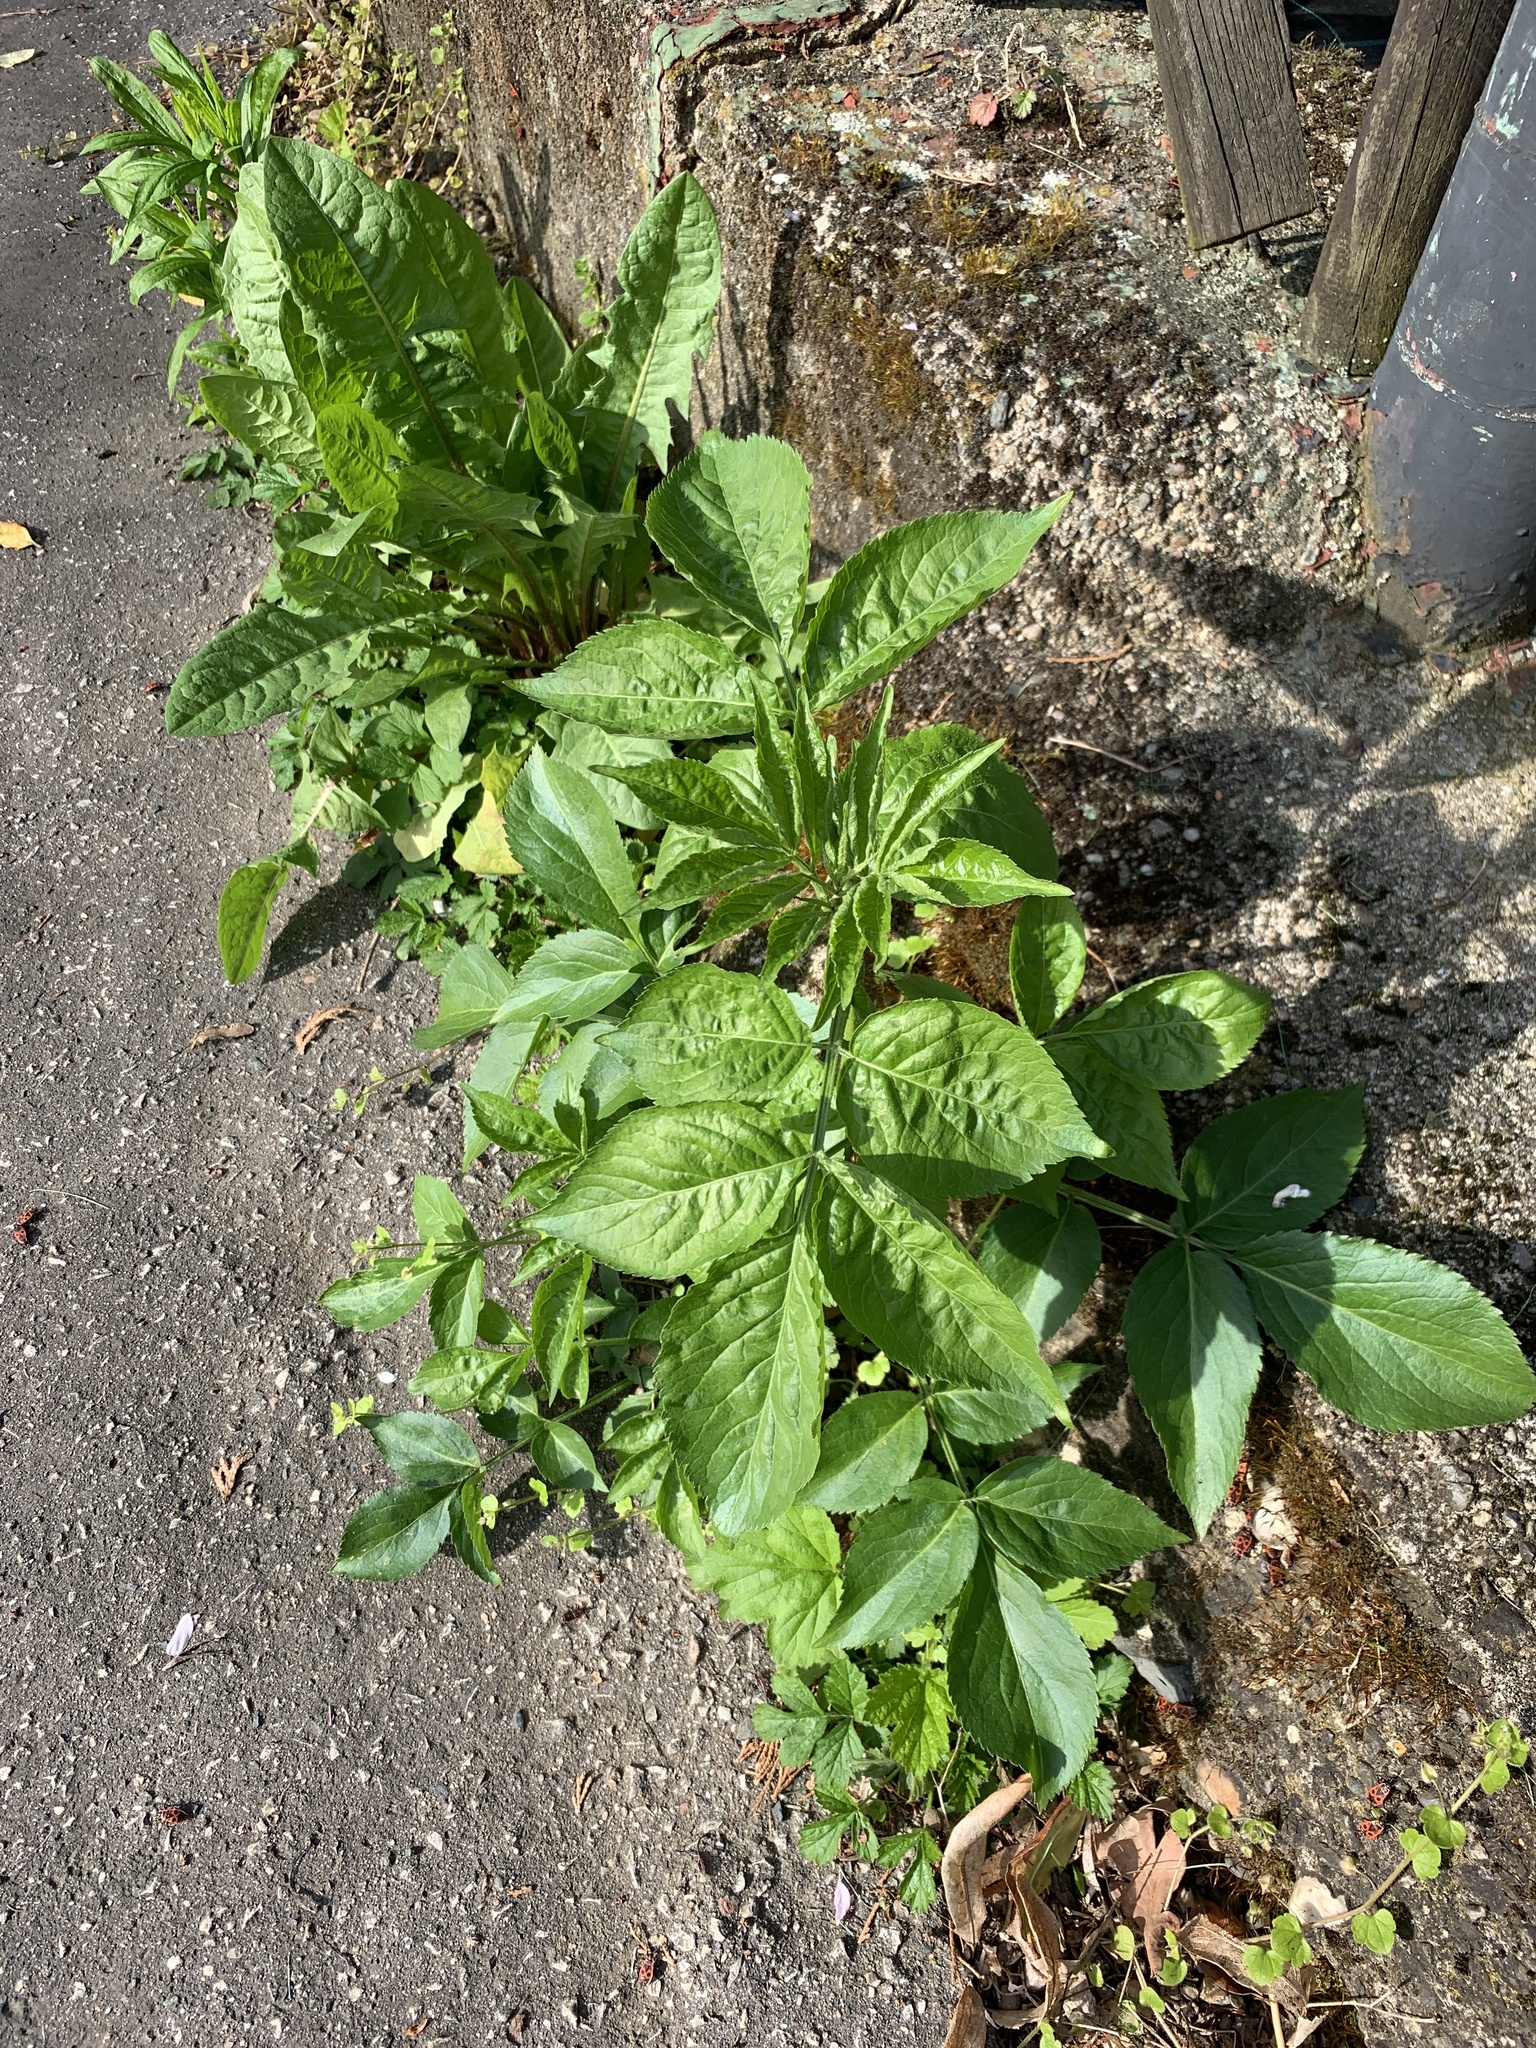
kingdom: Plantae
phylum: Tracheophyta
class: Magnoliopsida
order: Dipsacales
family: Viburnaceae
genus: Sambucus
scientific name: Sambucus nigra
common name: Elder
